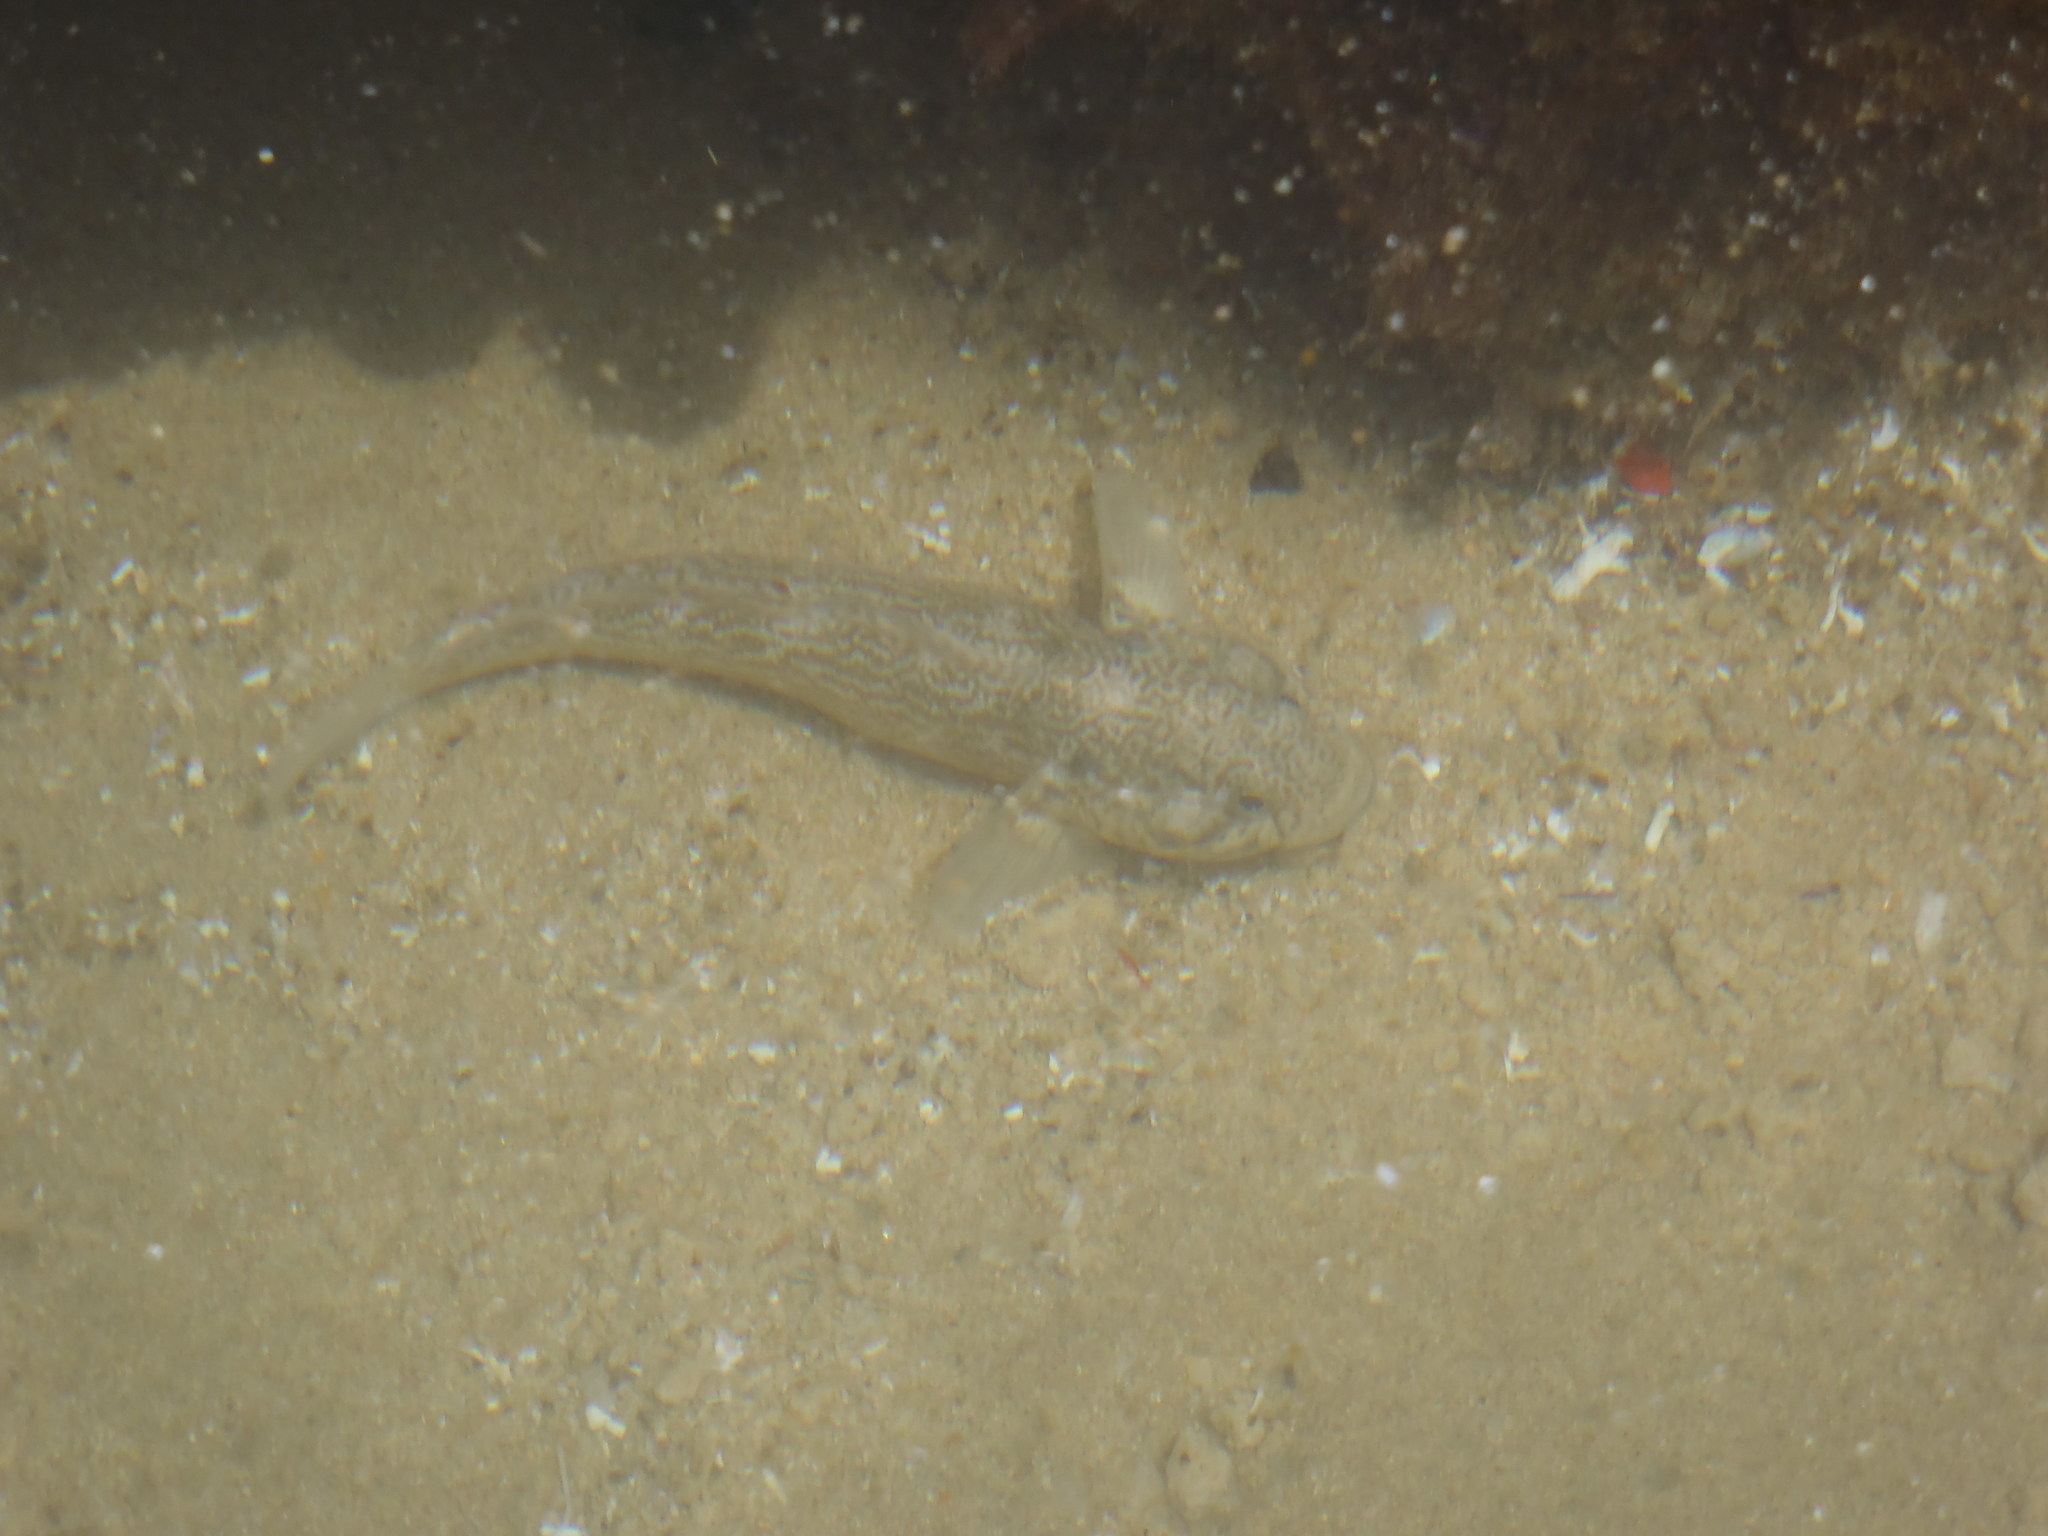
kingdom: Animalia
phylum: Chordata
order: Perciformes
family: Gobiidae
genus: Caffrogobius
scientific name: Caffrogobius caffer
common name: Banded goby
